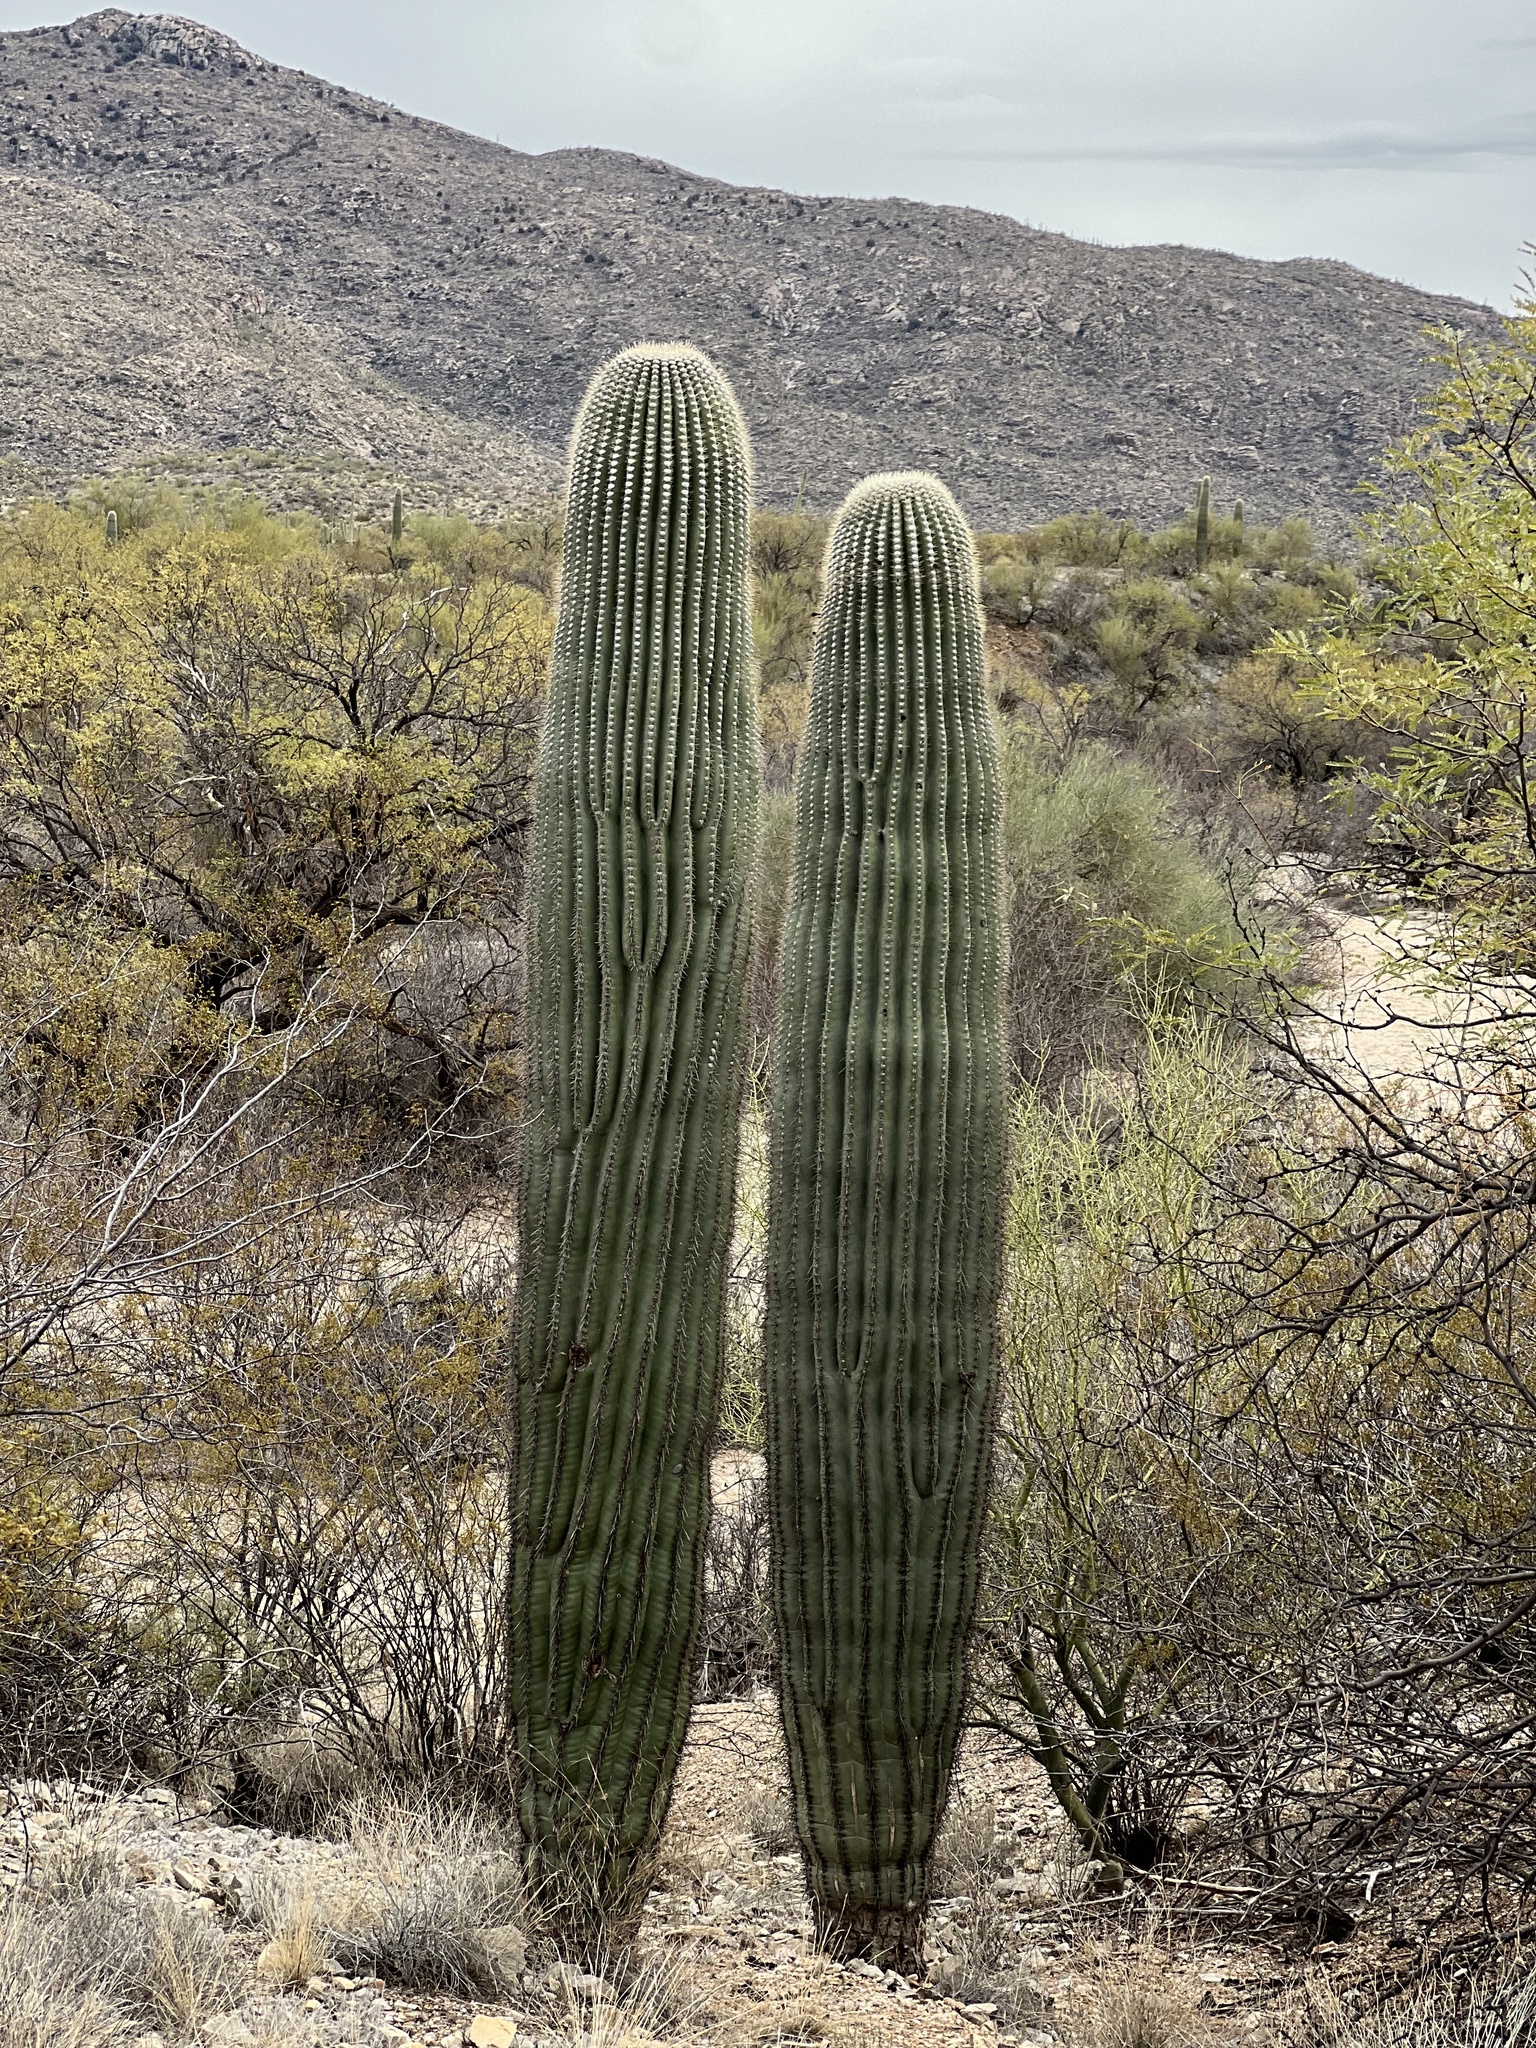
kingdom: Plantae
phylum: Tracheophyta
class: Magnoliopsida
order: Caryophyllales
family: Cactaceae
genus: Carnegiea
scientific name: Carnegiea gigantea
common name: Saguaro
